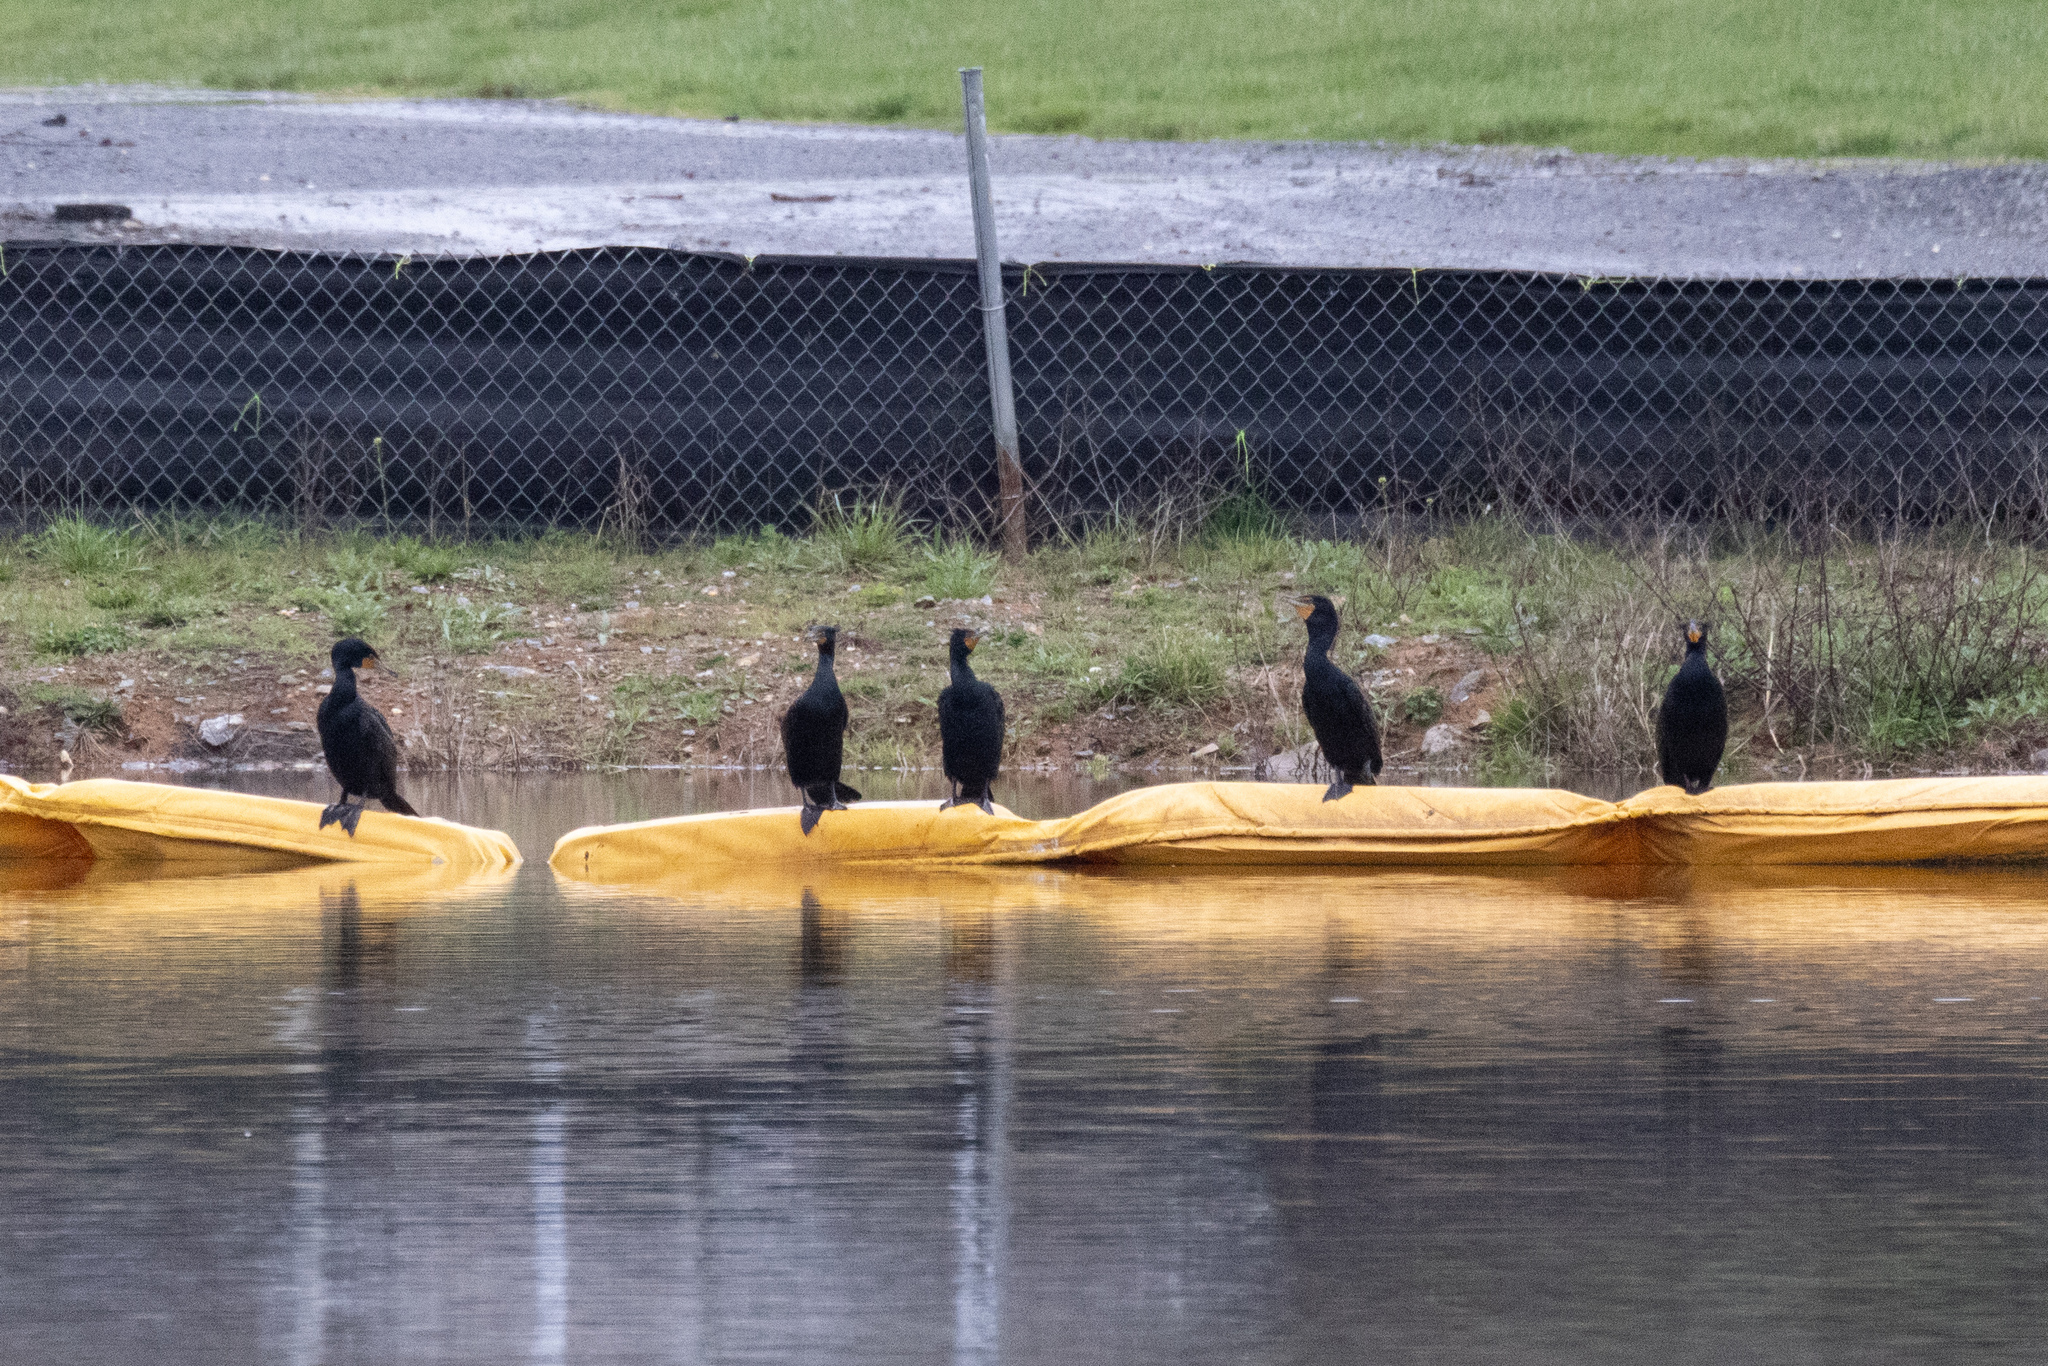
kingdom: Animalia
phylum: Chordata
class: Aves
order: Suliformes
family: Phalacrocoracidae
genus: Phalacrocorax
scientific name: Phalacrocorax auritus
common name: Double-crested cormorant
